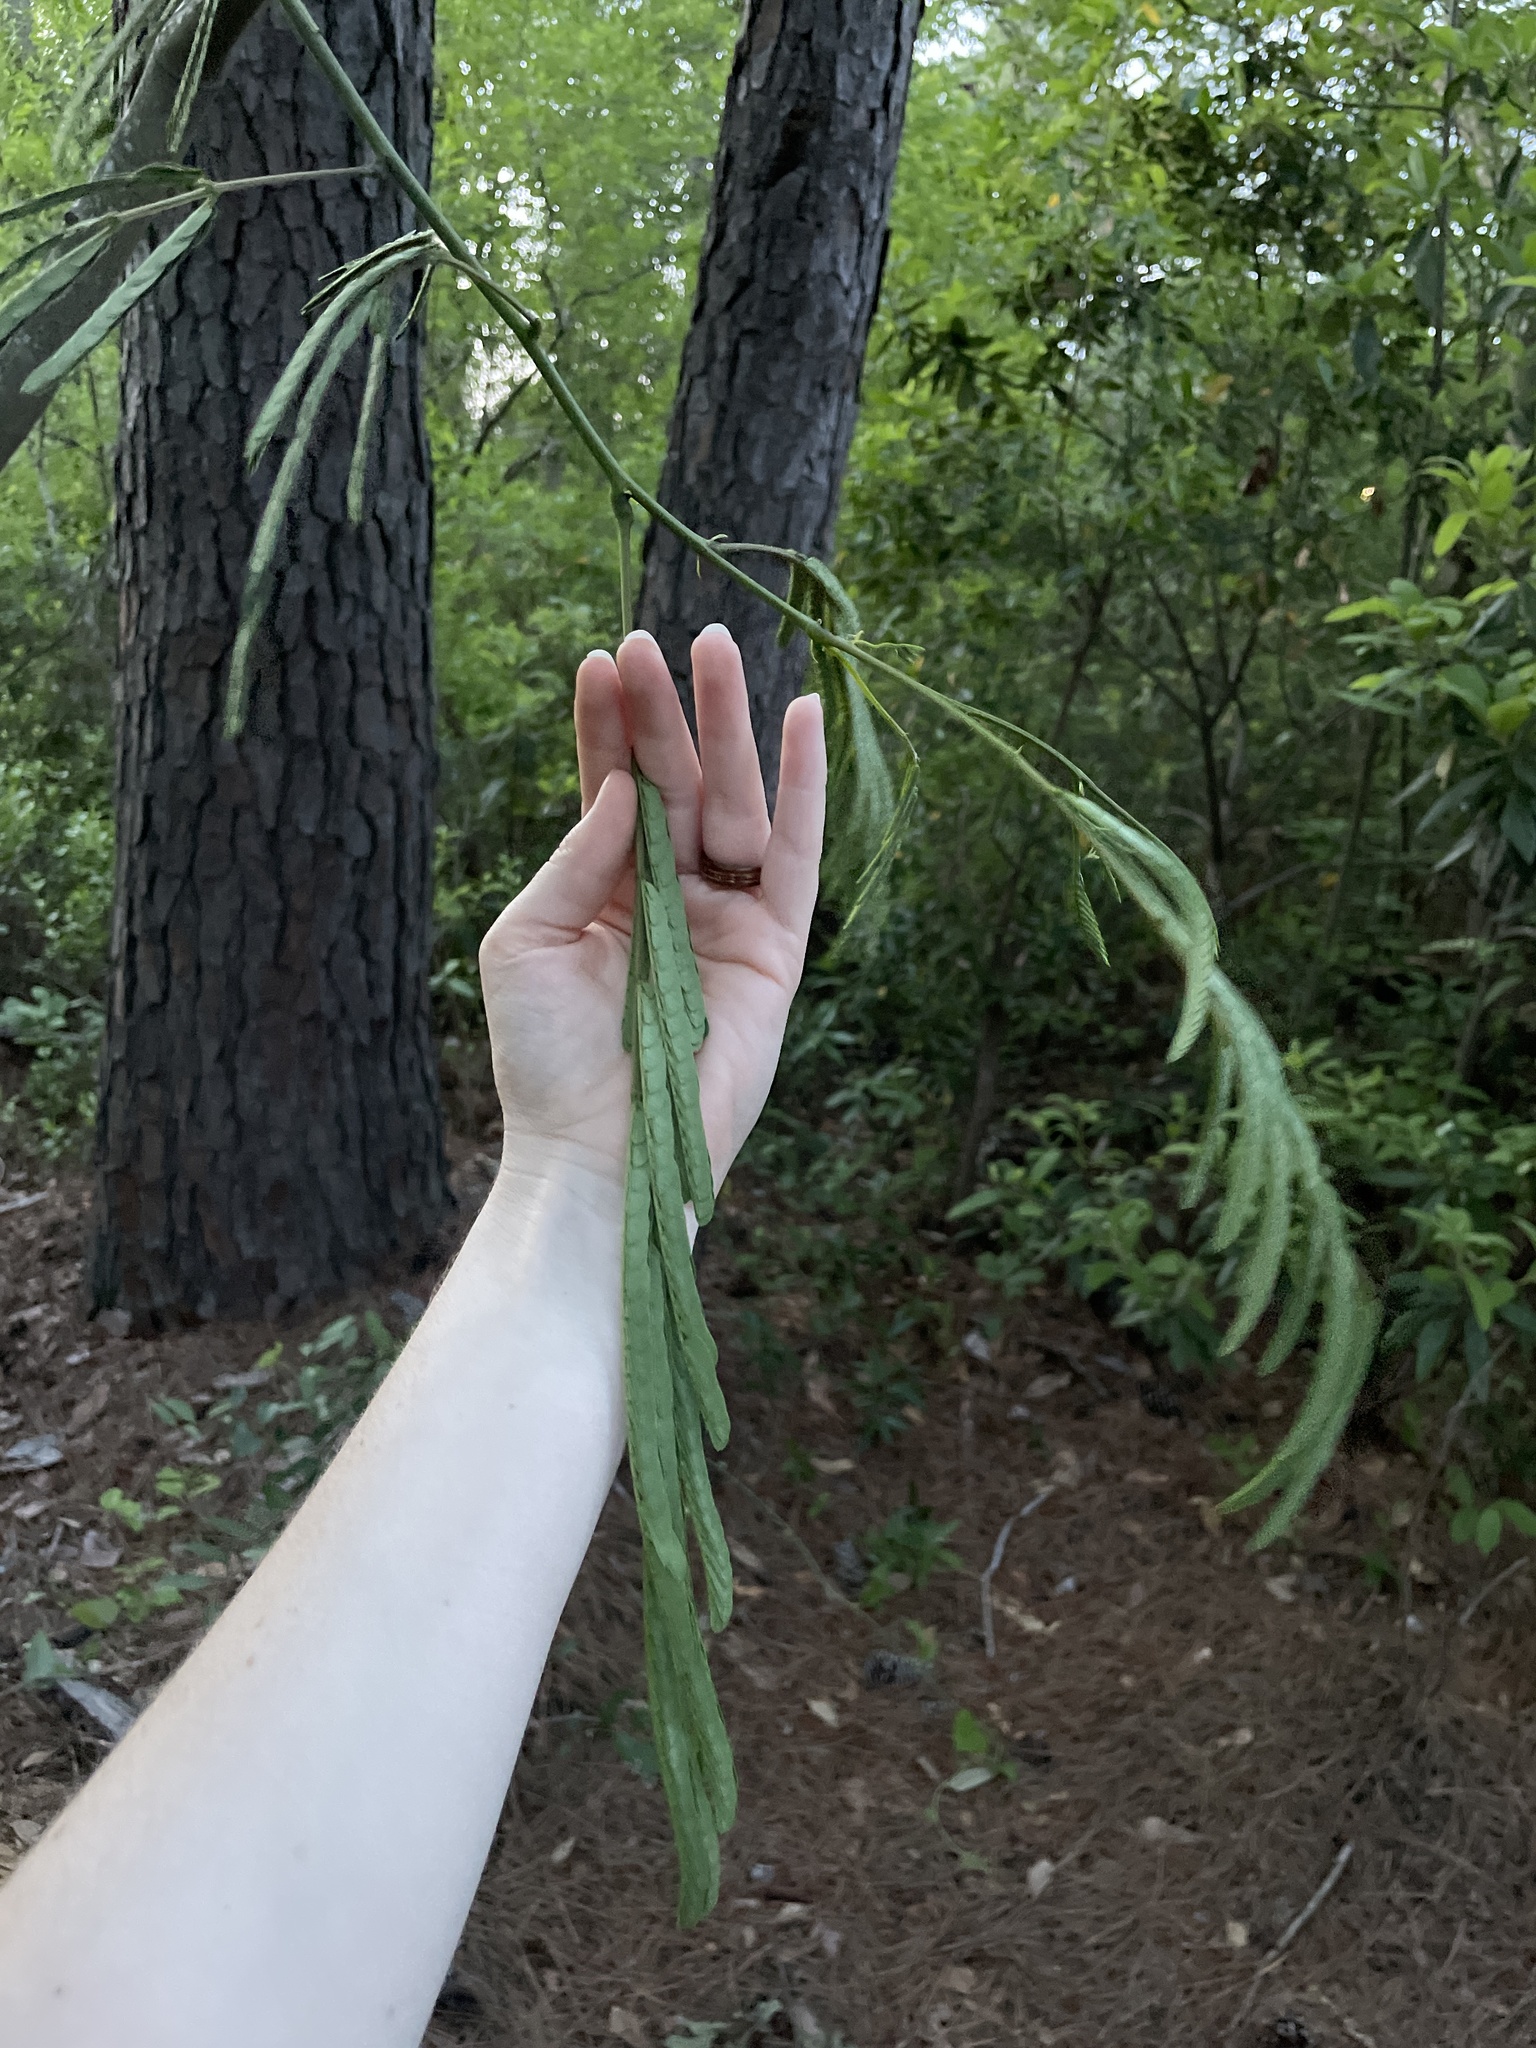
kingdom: Plantae
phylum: Tracheophyta
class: Magnoliopsida
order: Fabales
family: Fabaceae
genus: Albizia
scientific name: Albizia julibrissin
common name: Silktree
